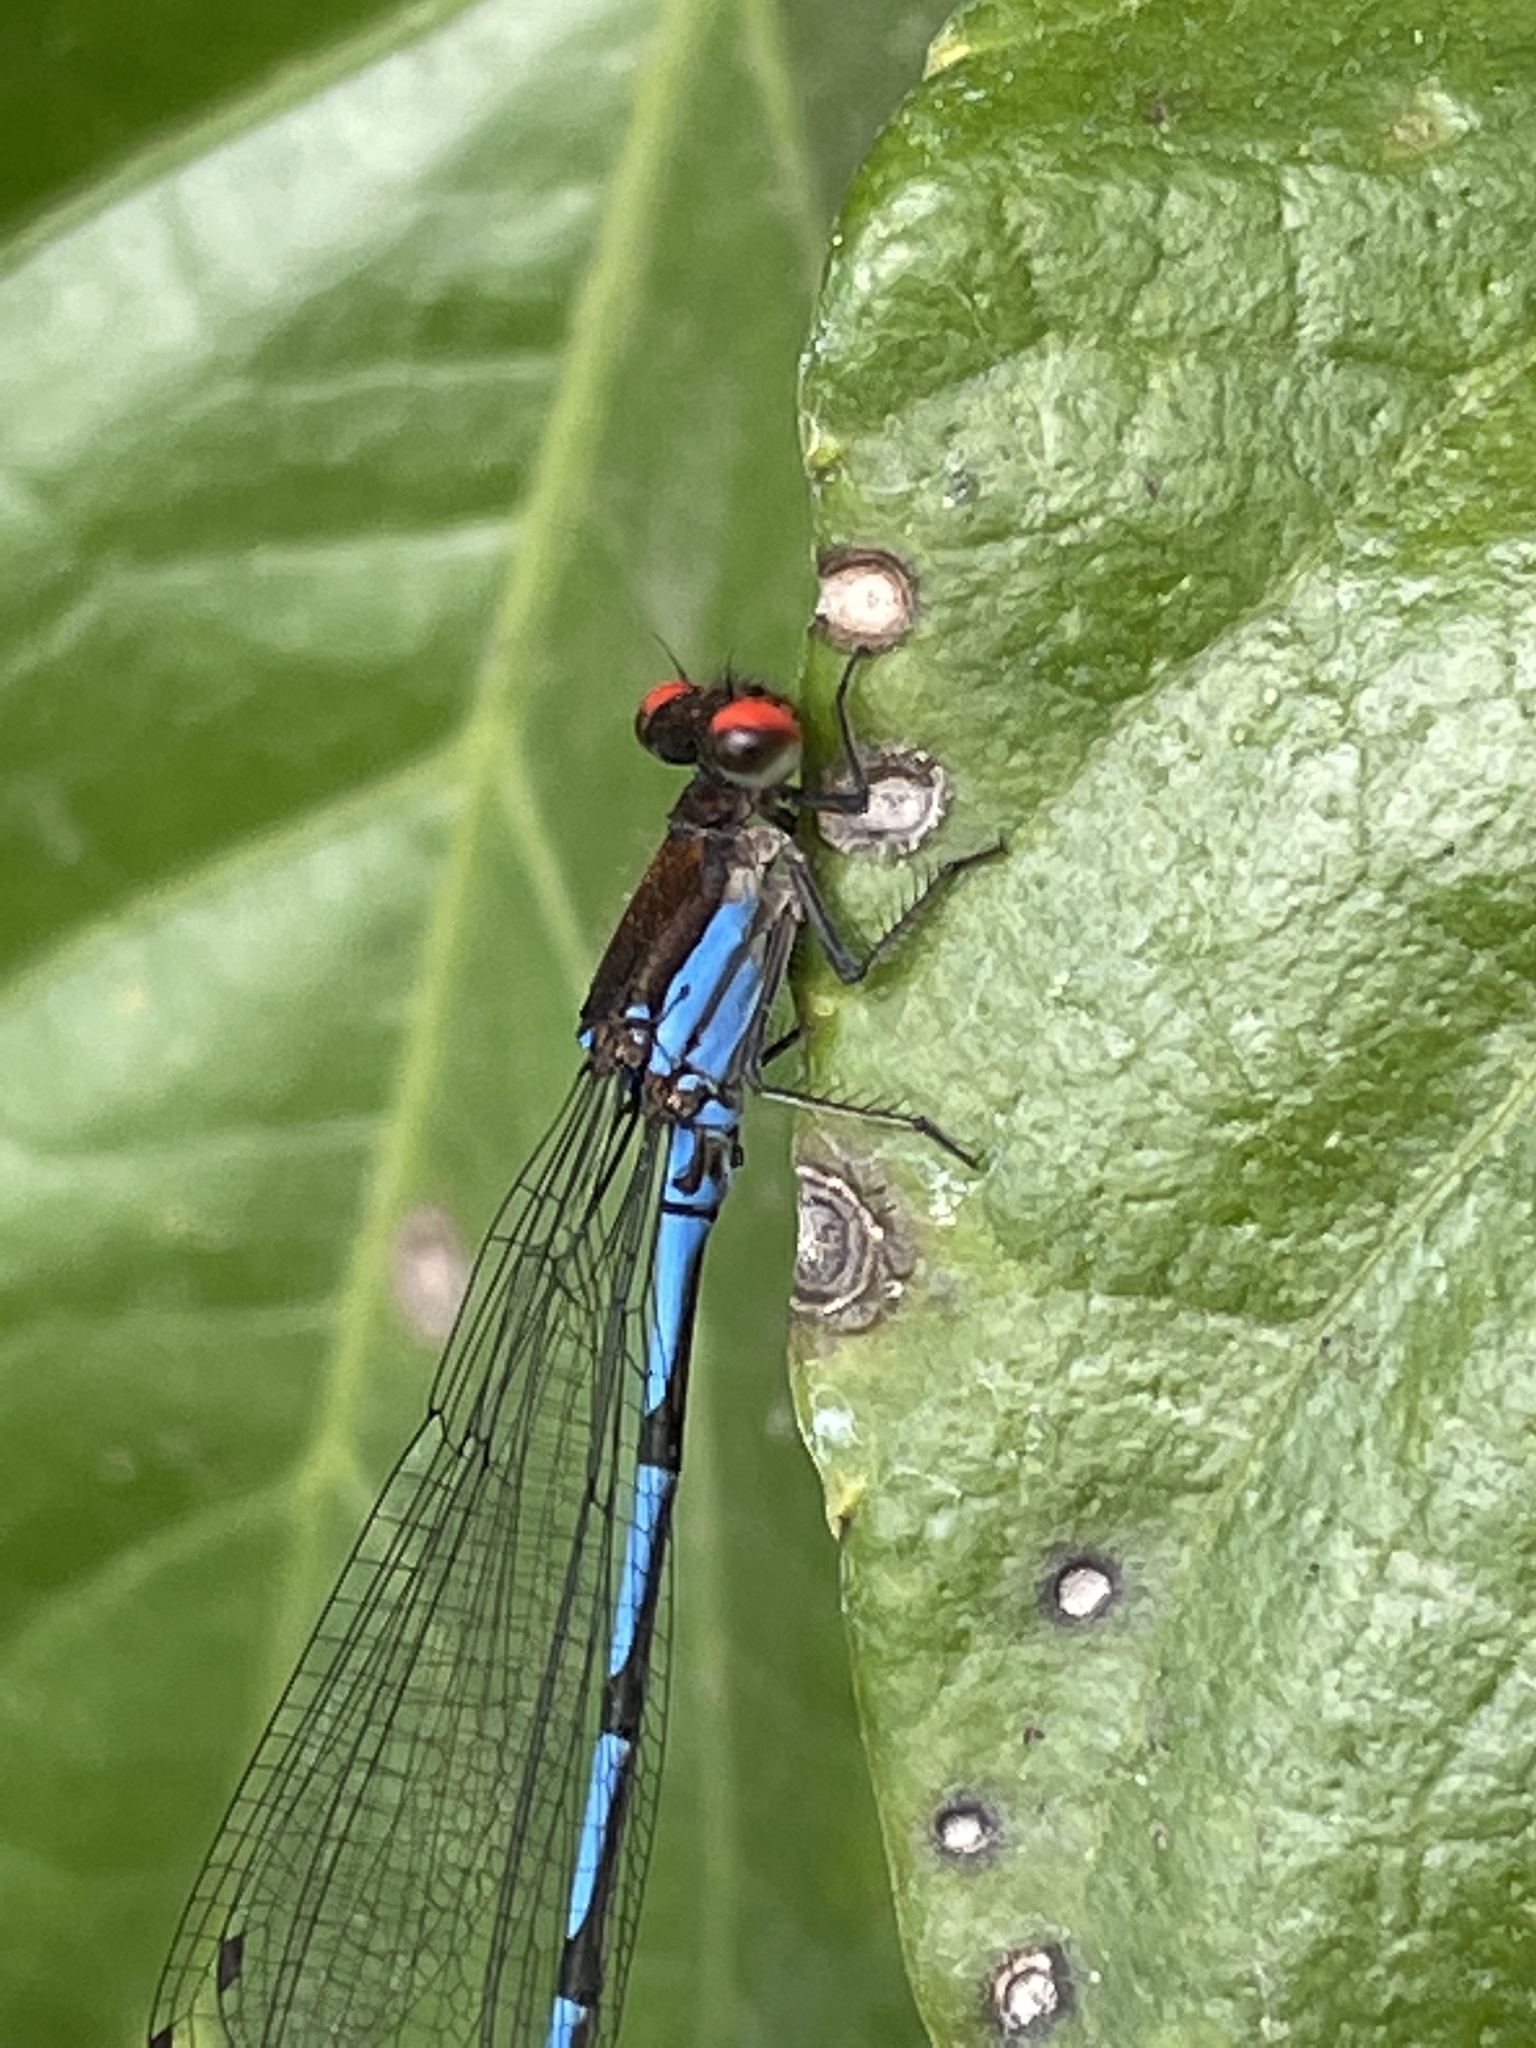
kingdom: Animalia
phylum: Arthropoda
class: Insecta
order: Odonata
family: Coenagrionidae
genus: Argia
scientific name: Argia oenea
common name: Fiery-eyed dancer
